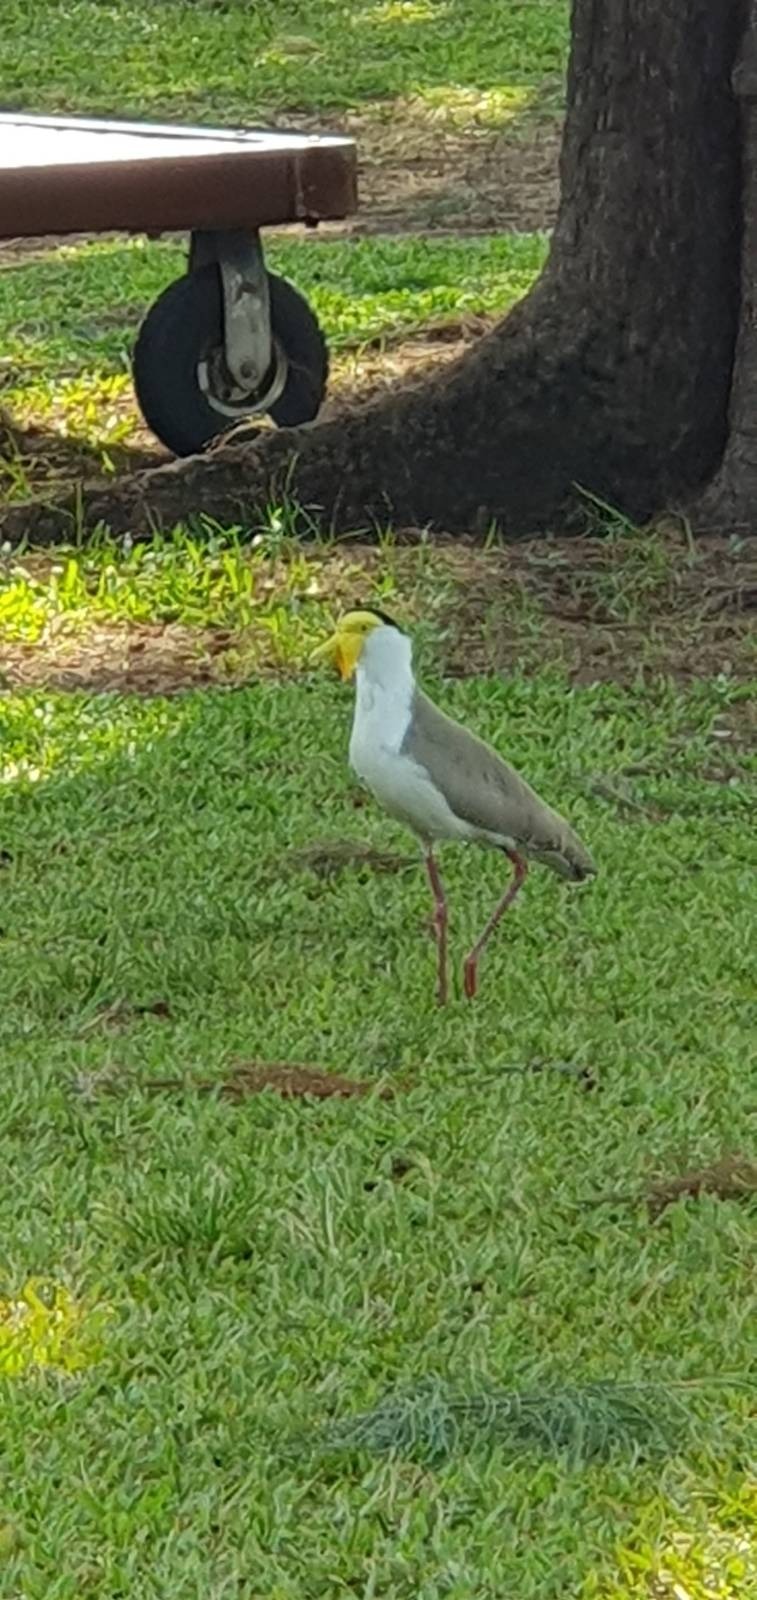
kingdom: Animalia
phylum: Chordata
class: Aves
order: Charadriiformes
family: Charadriidae
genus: Vanellus
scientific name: Vanellus miles
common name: Masked lapwing
